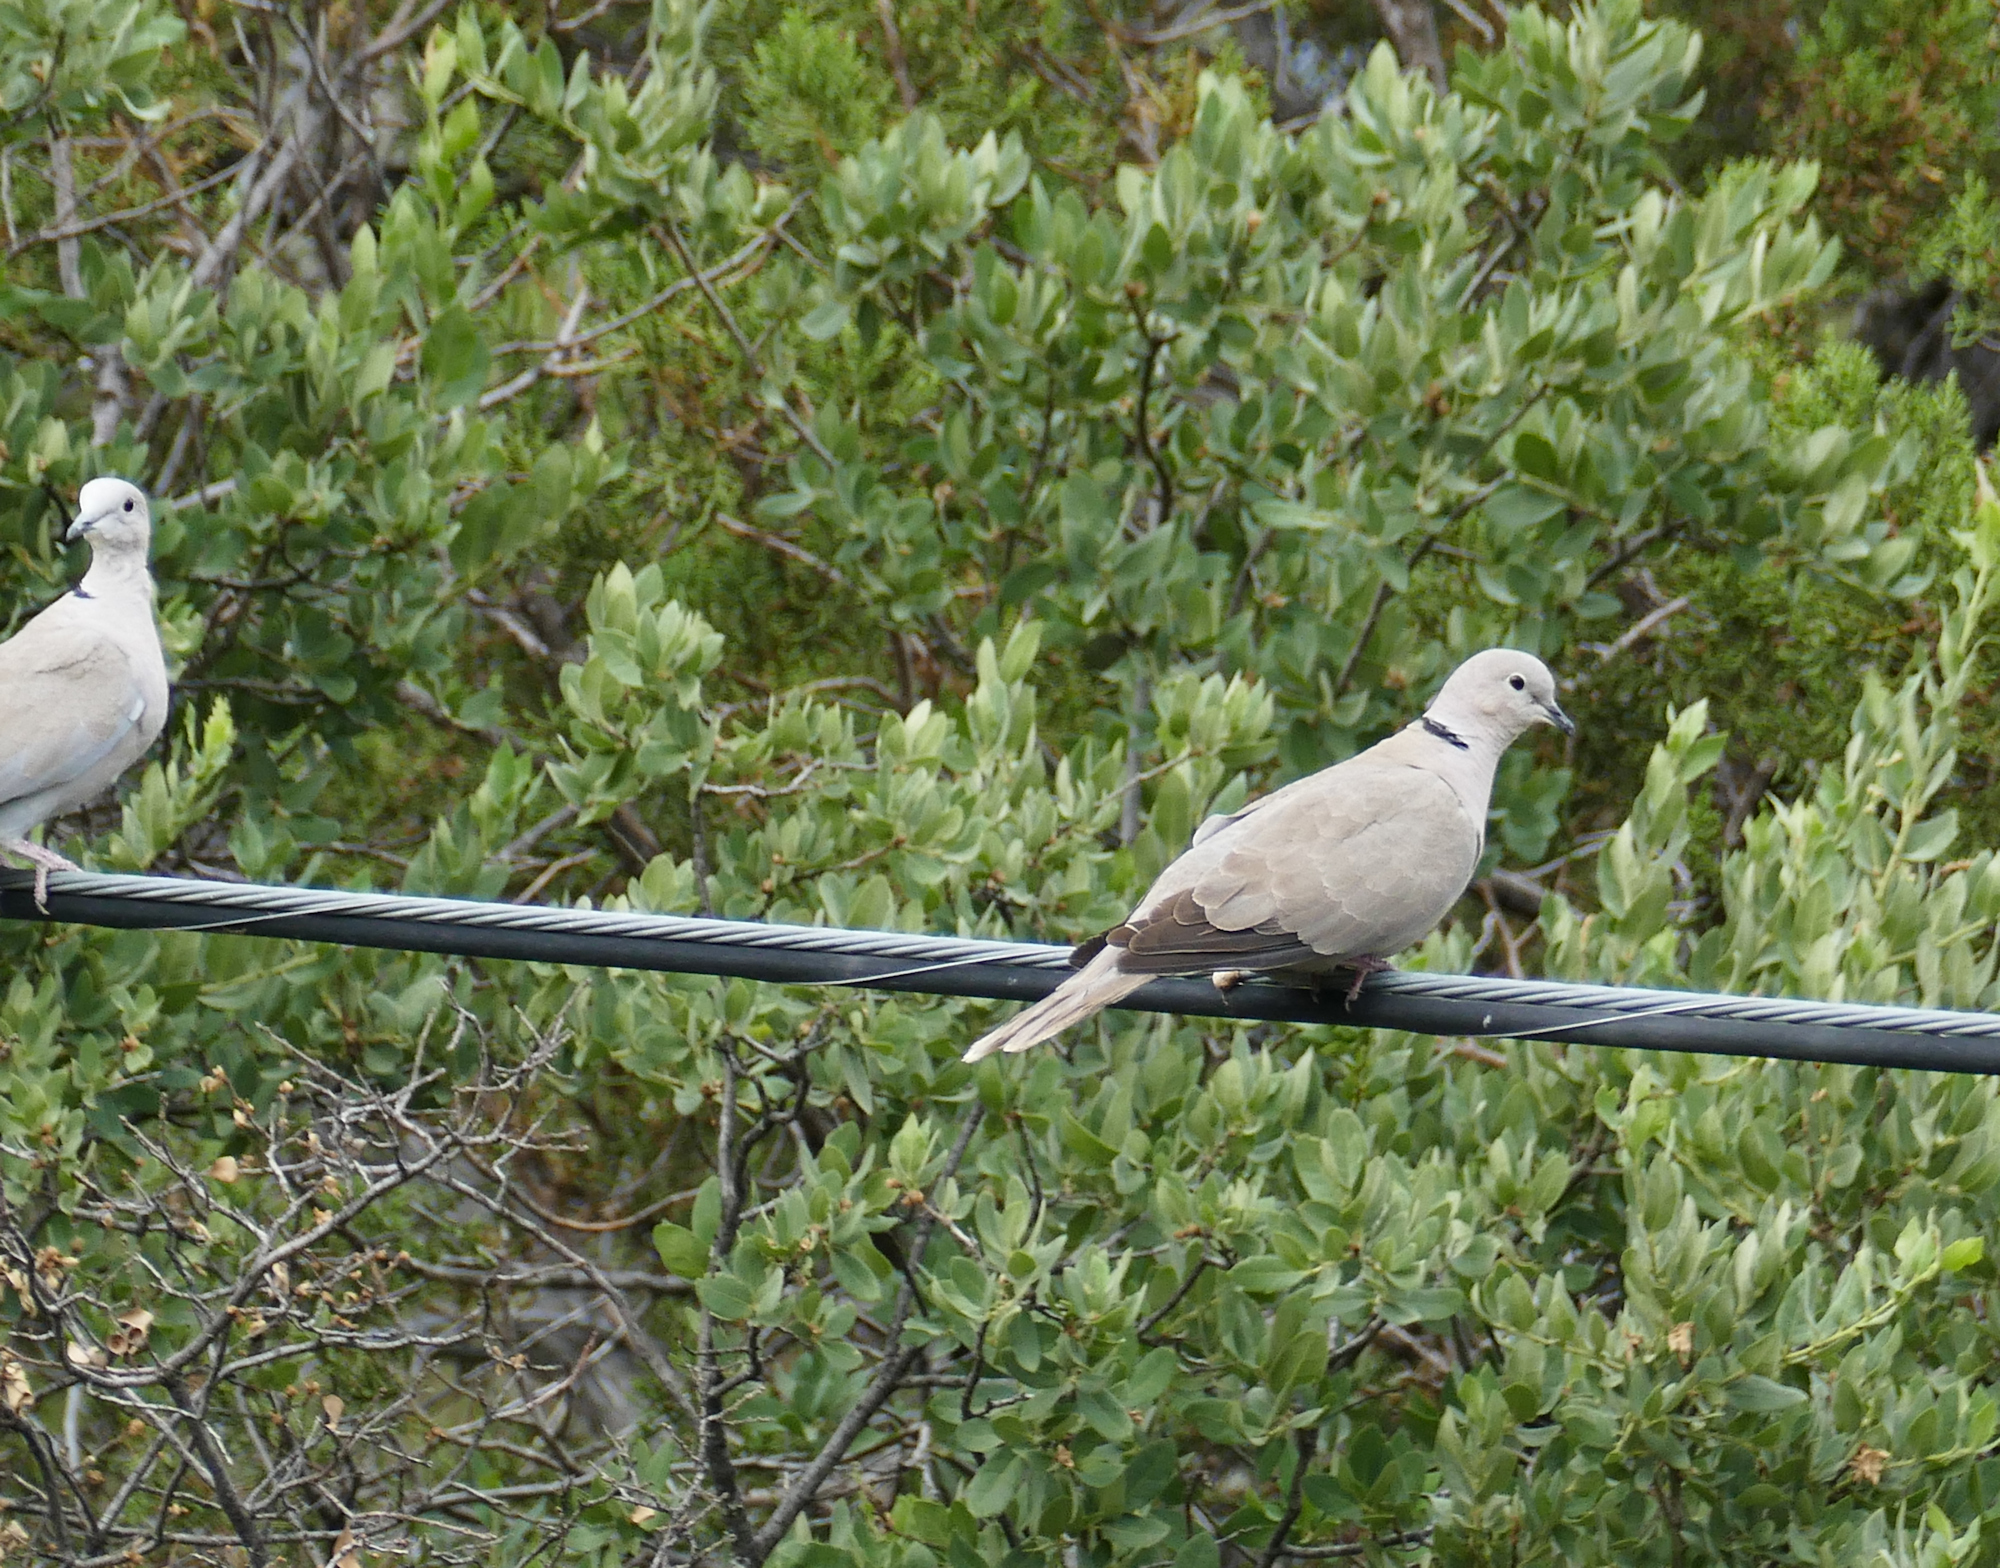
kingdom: Animalia
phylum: Chordata
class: Aves
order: Columbiformes
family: Columbidae
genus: Streptopelia
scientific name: Streptopelia decaocto
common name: Eurasian collared dove
